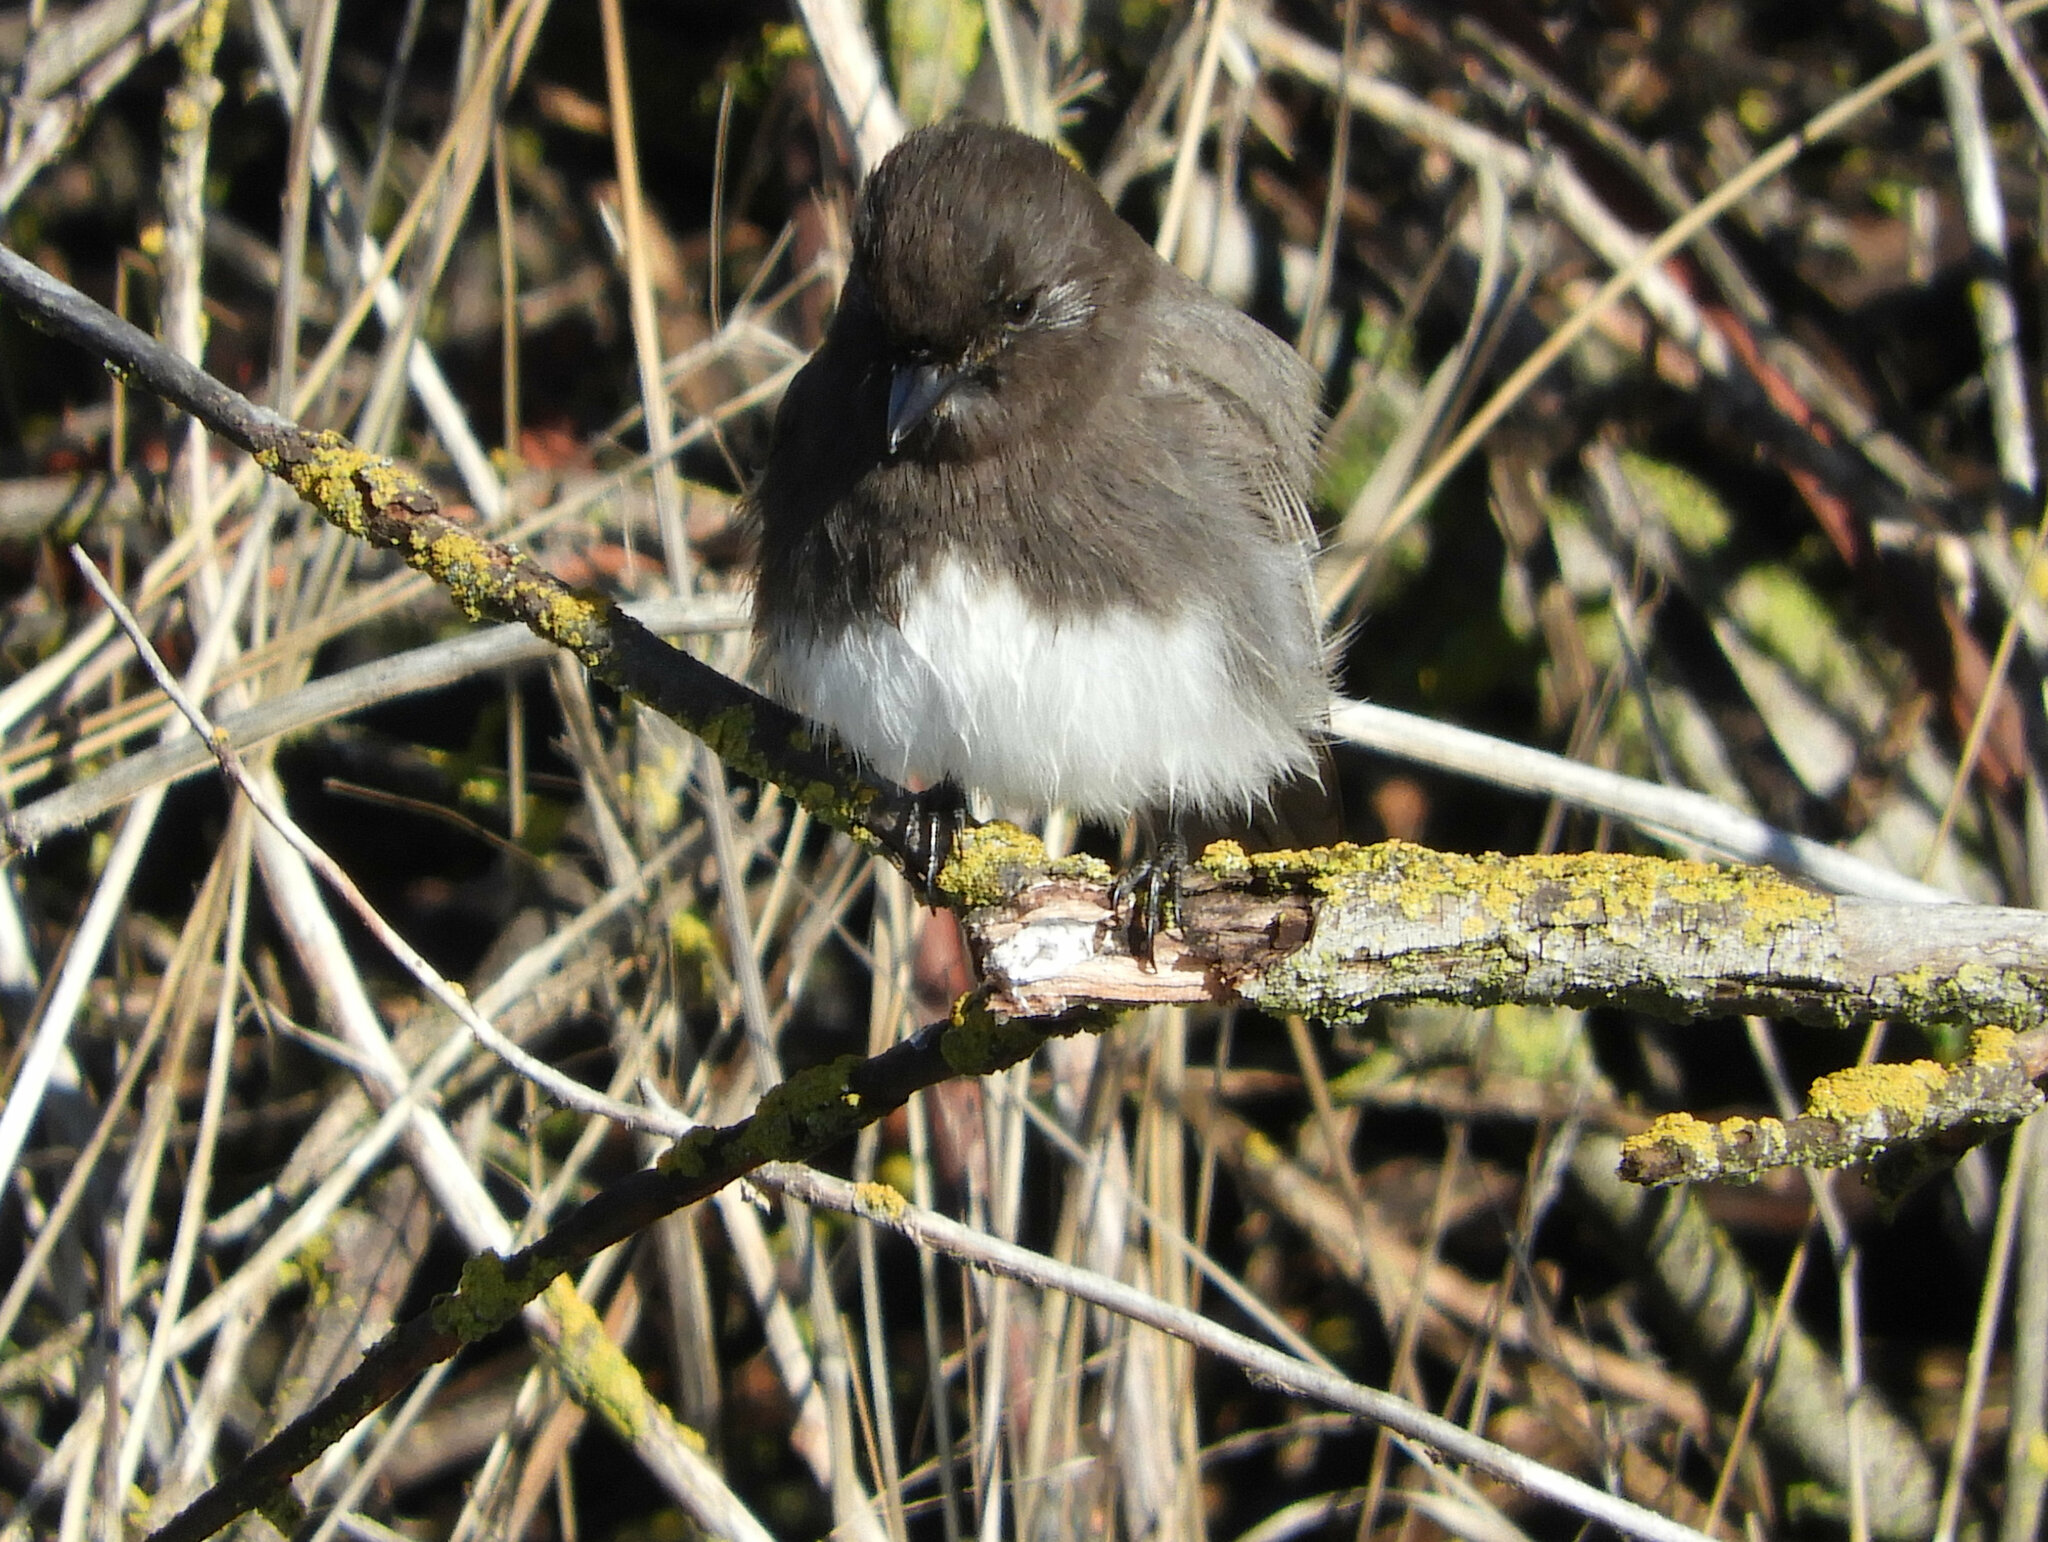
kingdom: Animalia
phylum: Chordata
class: Aves
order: Passeriformes
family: Tyrannidae
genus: Sayornis
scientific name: Sayornis nigricans
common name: Black phoebe
